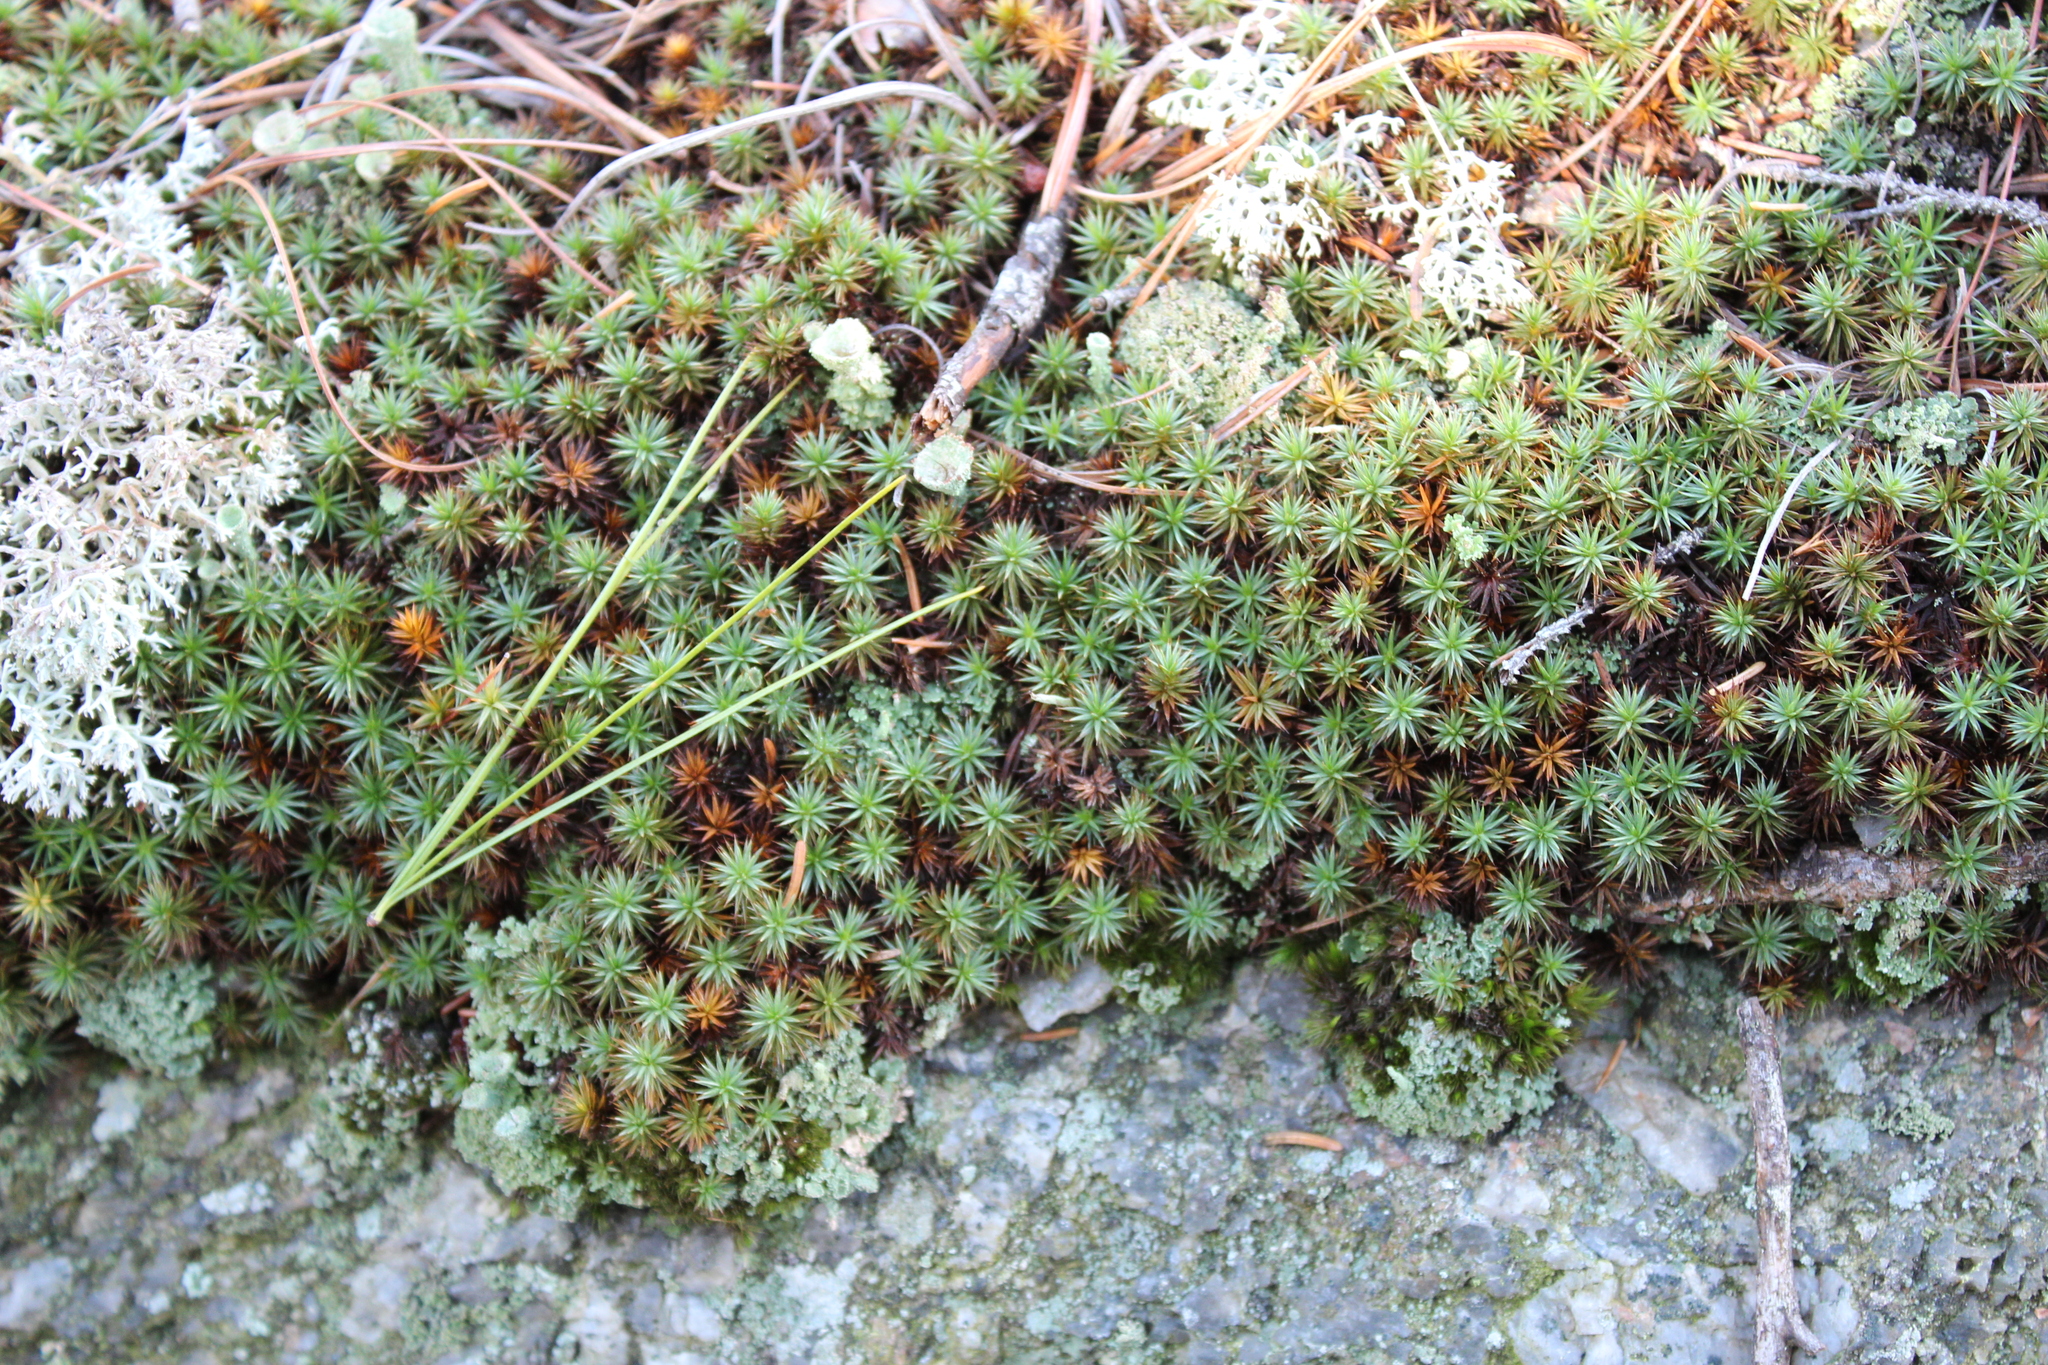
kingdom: Plantae
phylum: Bryophyta
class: Polytrichopsida
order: Polytrichales
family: Polytrichaceae
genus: Polytrichum
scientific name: Polytrichum juniperinum
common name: Juniper haircap moss
